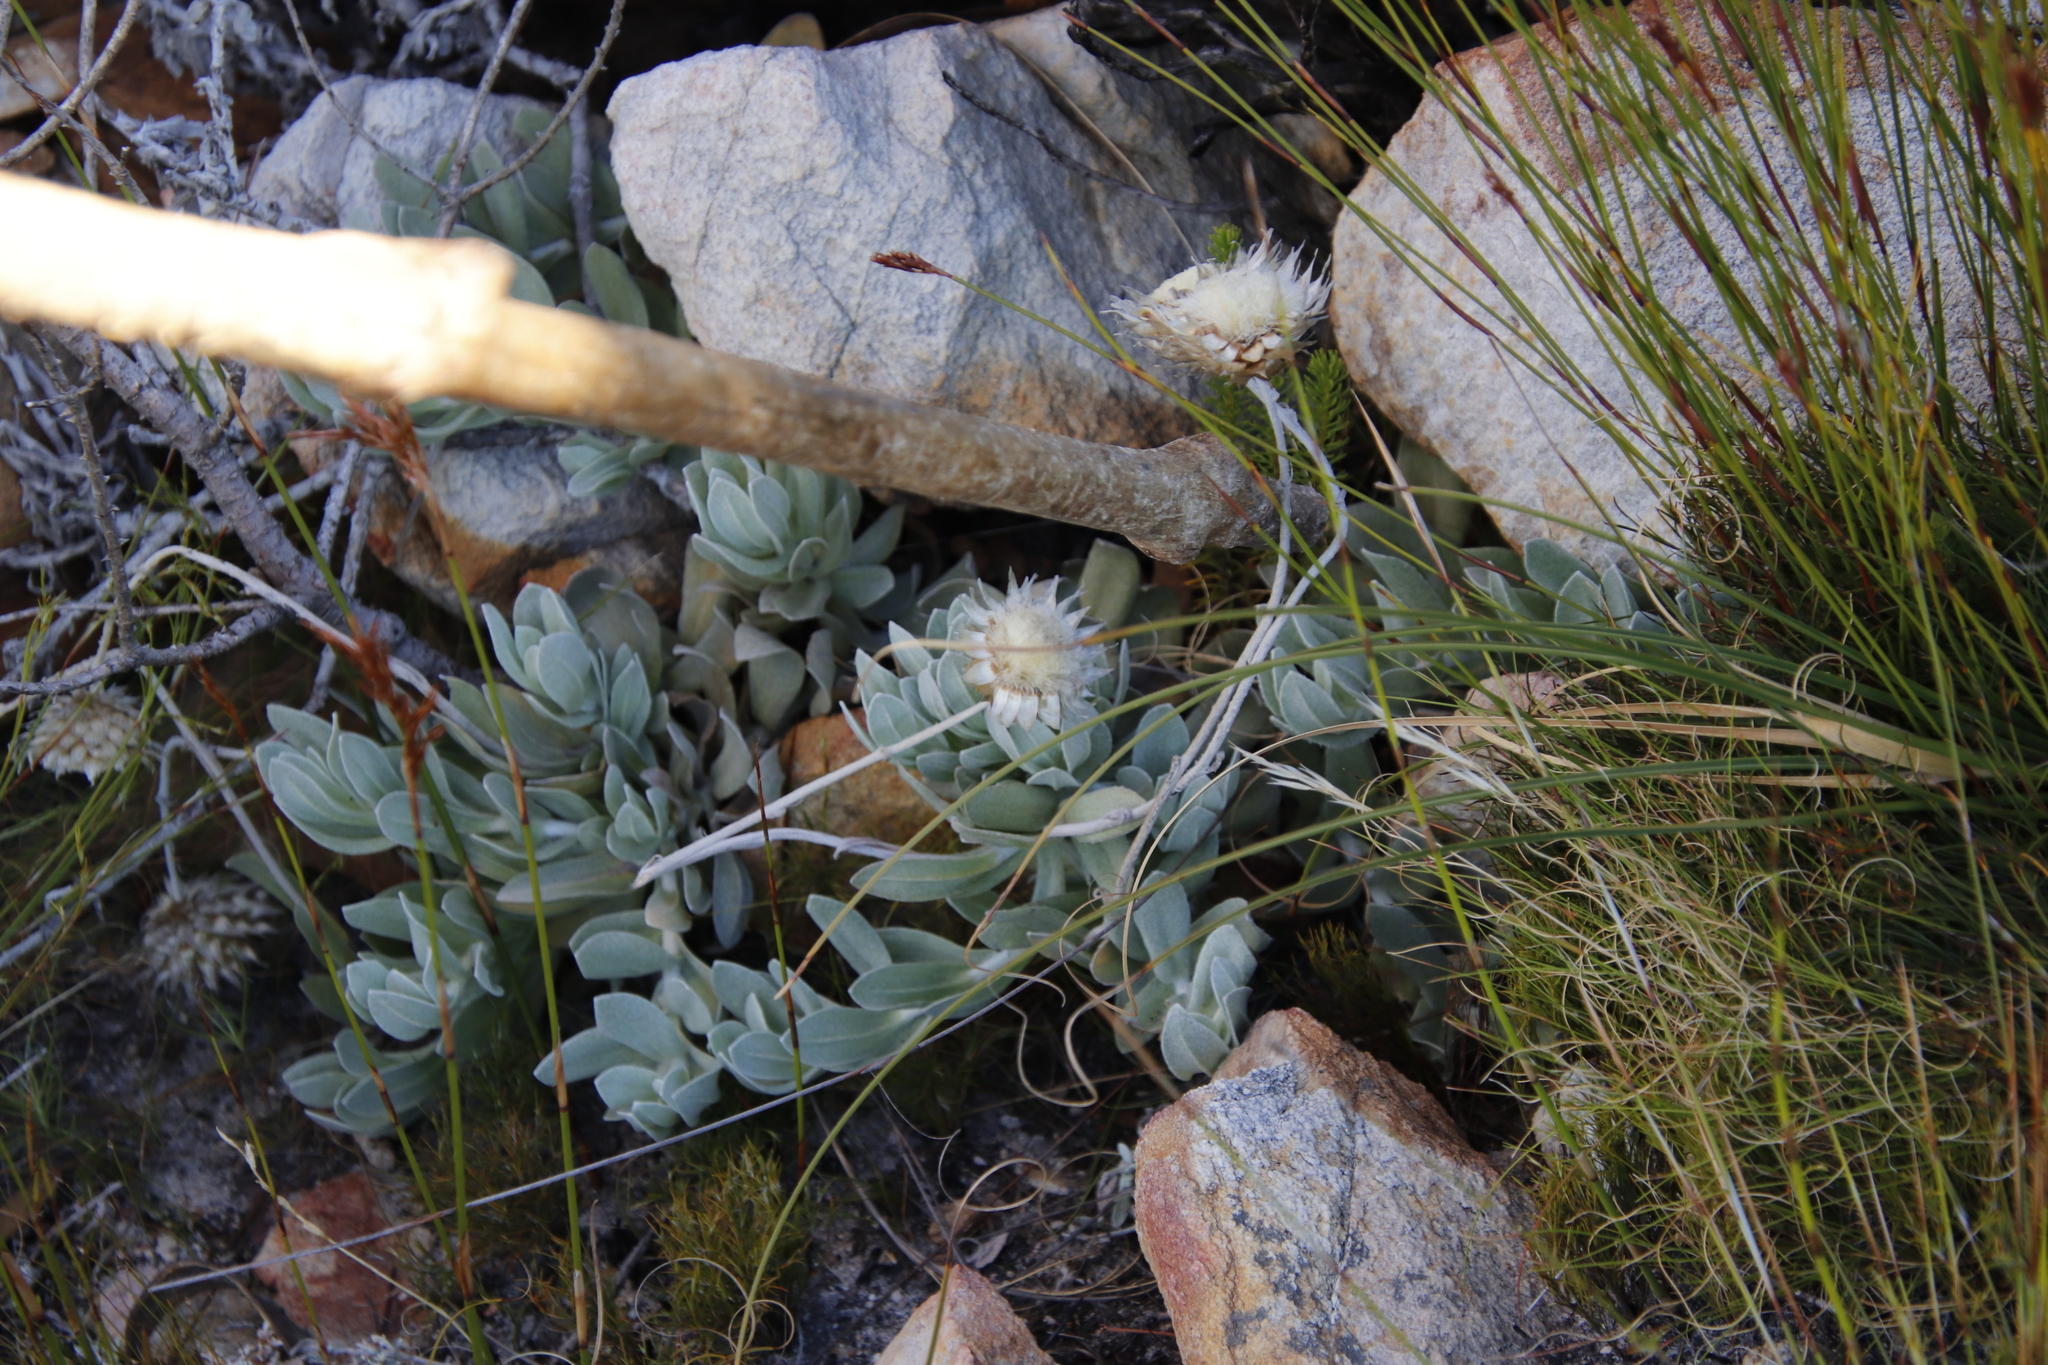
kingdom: Plantae
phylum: Tracheophyta
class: Magnoliopsida
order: Asterales
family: Asteraceae
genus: Syncarpha
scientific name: Syncarpha speciosissima
